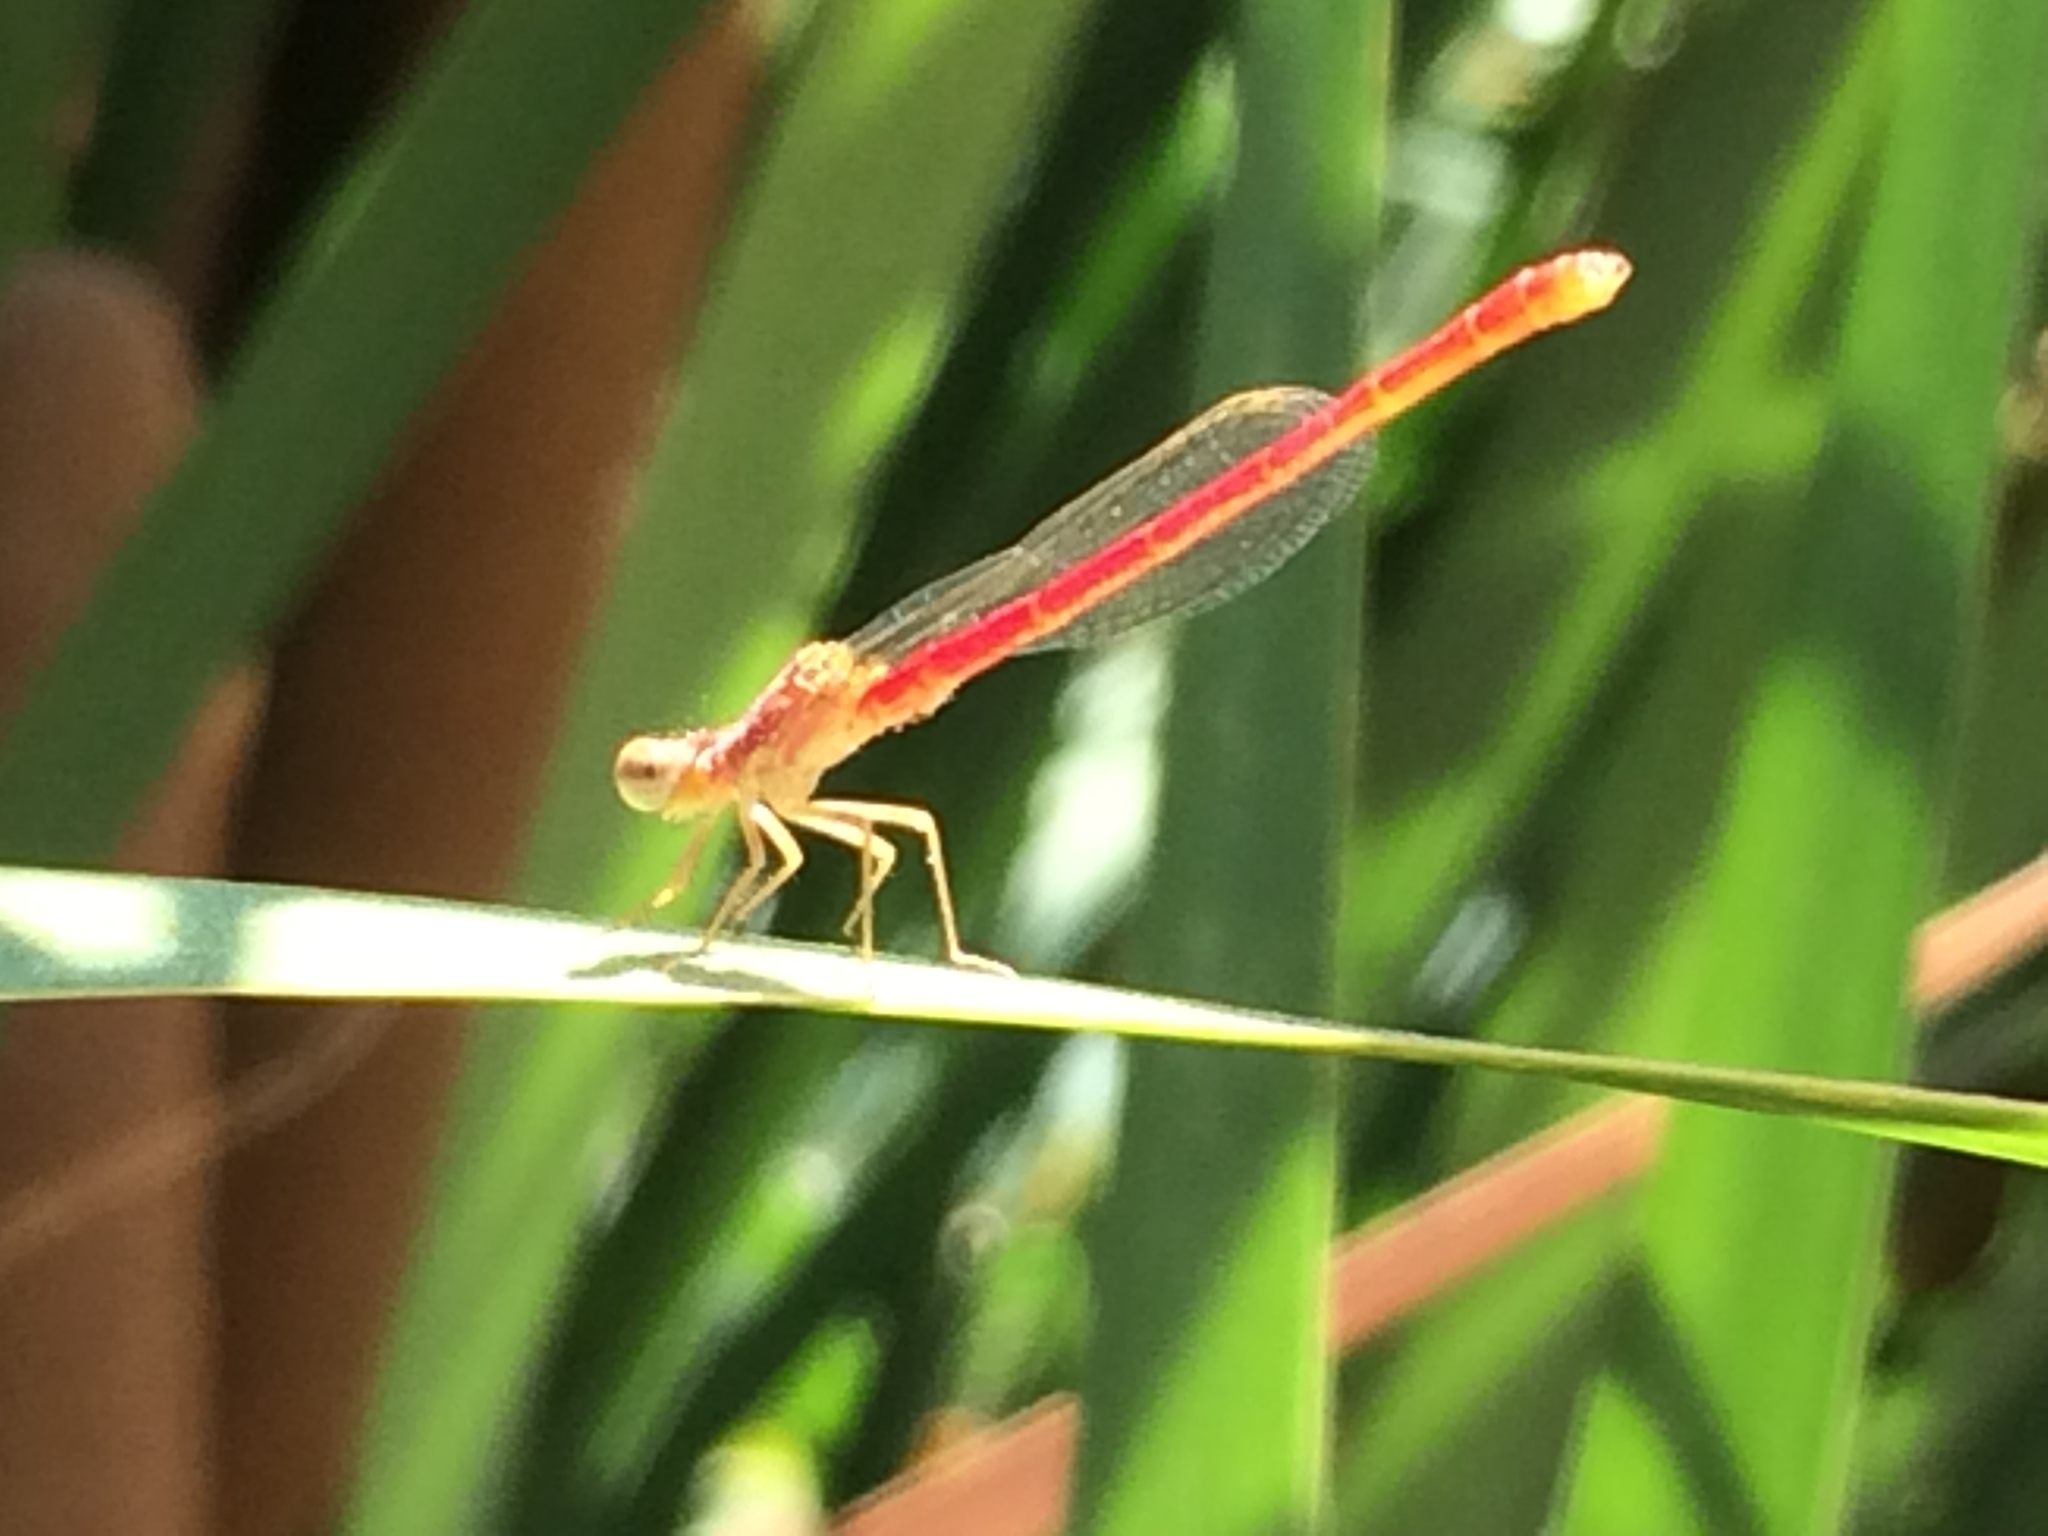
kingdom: Animalia
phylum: Arthropoda
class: Insecta
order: Odonata
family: Coenagrionidae
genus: Telebasis
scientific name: Telebasis salva
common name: Desert firetail
